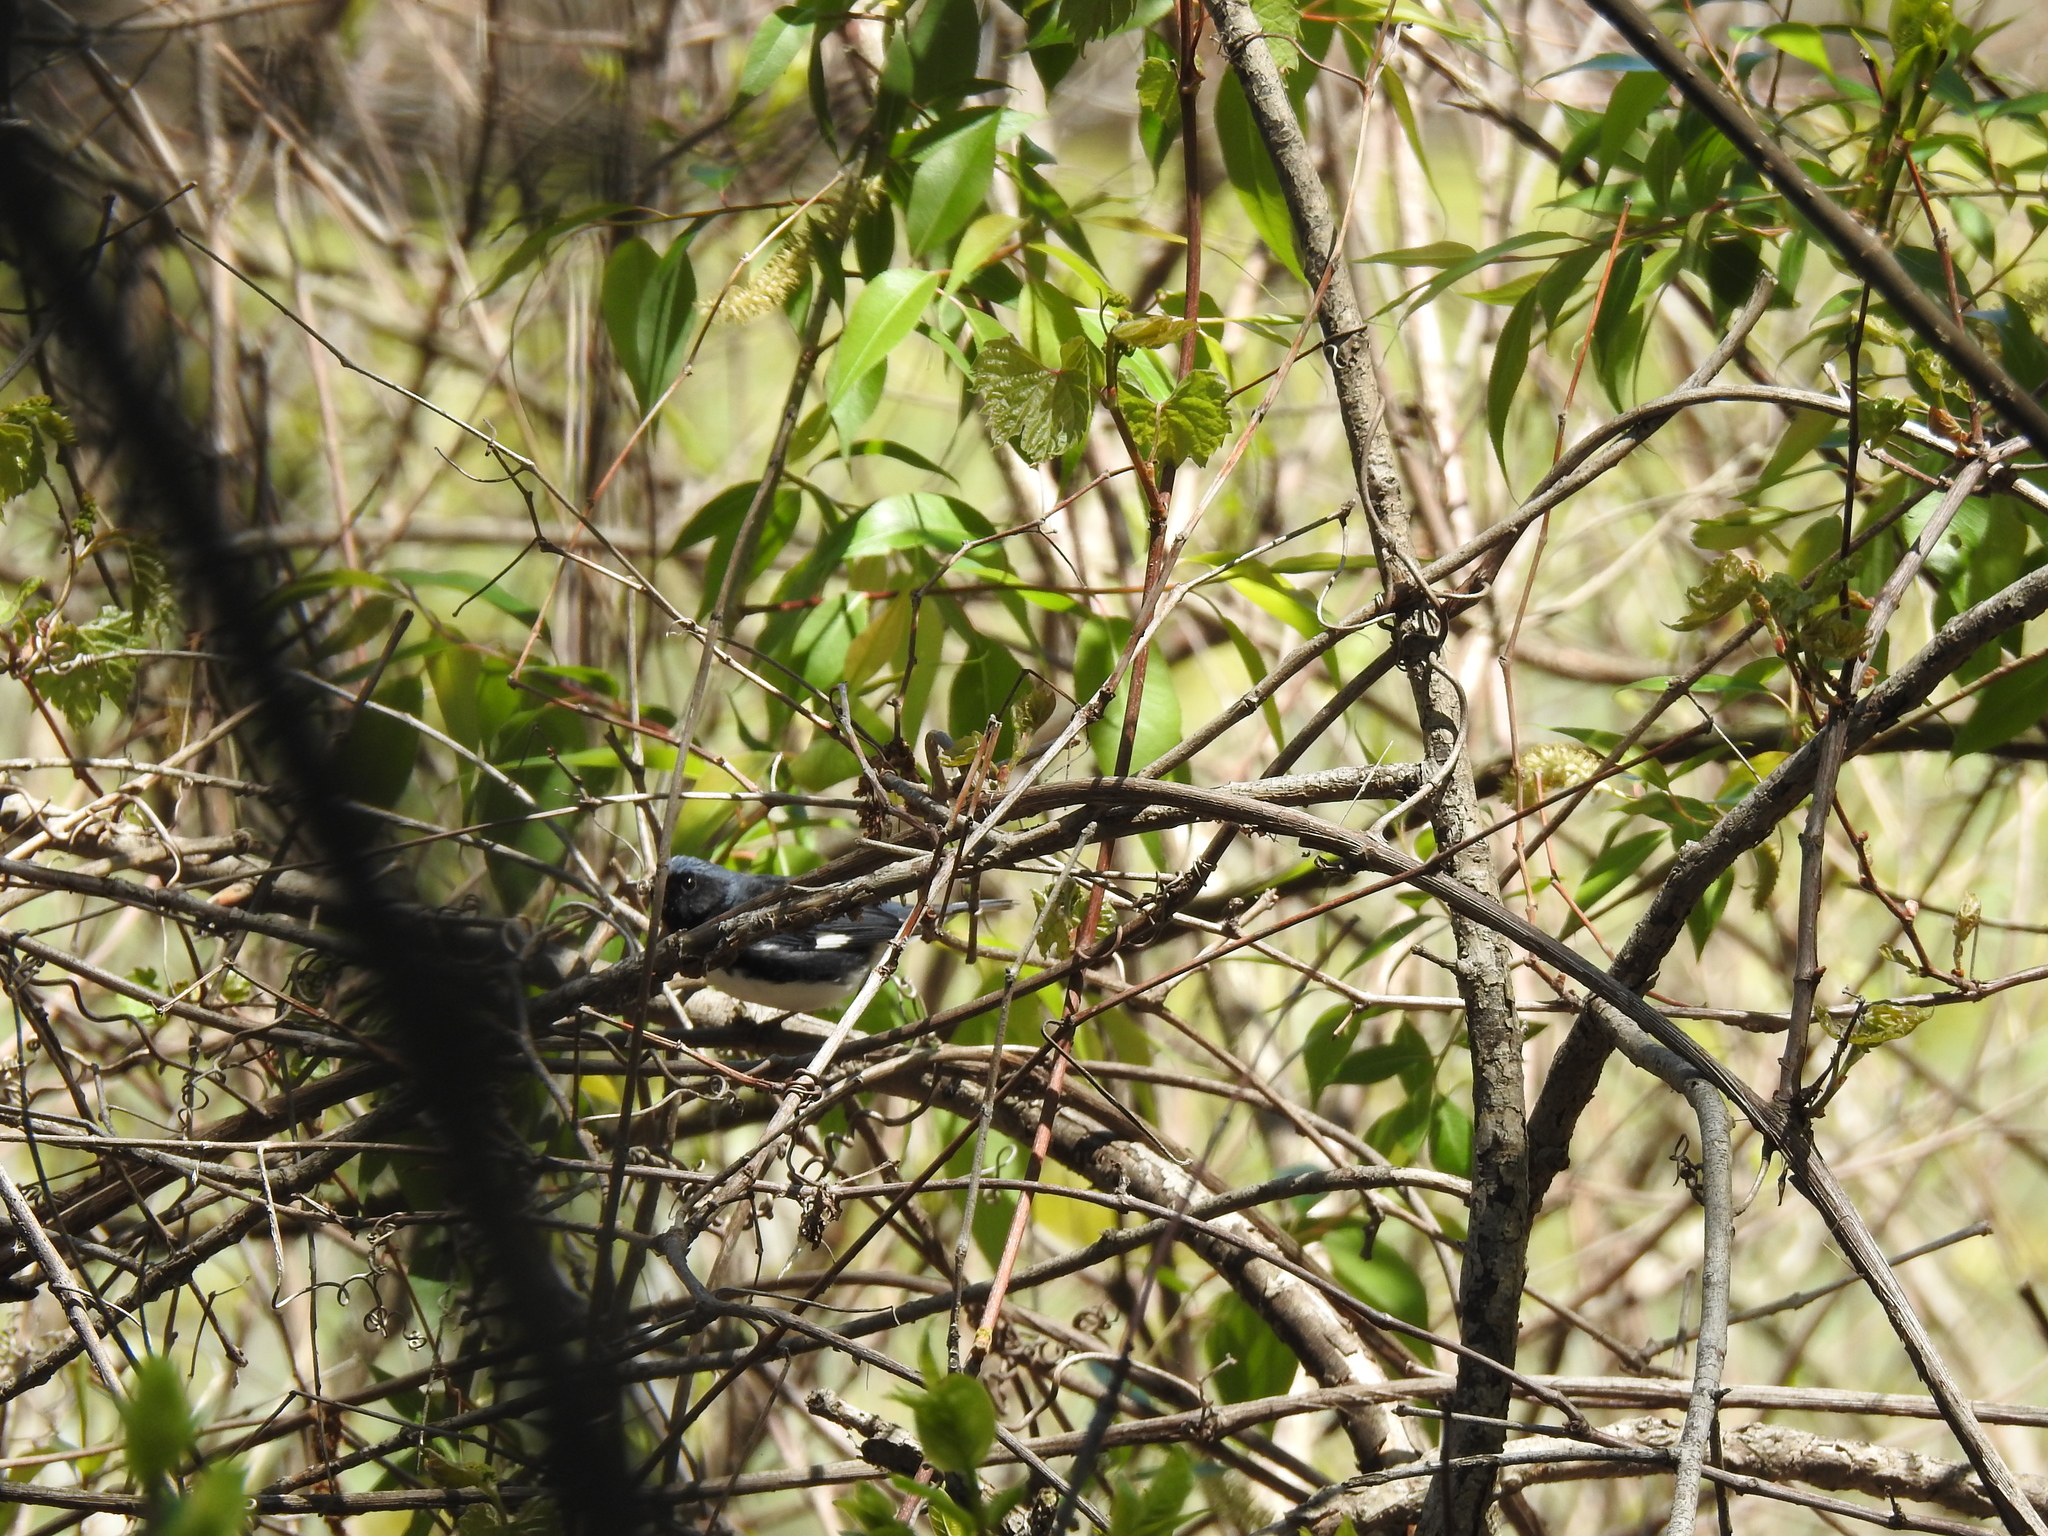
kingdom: Animalia
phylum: Chordata
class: Aves
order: Passeriformes
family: Parulidae
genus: Setophaga
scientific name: Setophaga caerulescens
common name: Black-throated blue warbler
